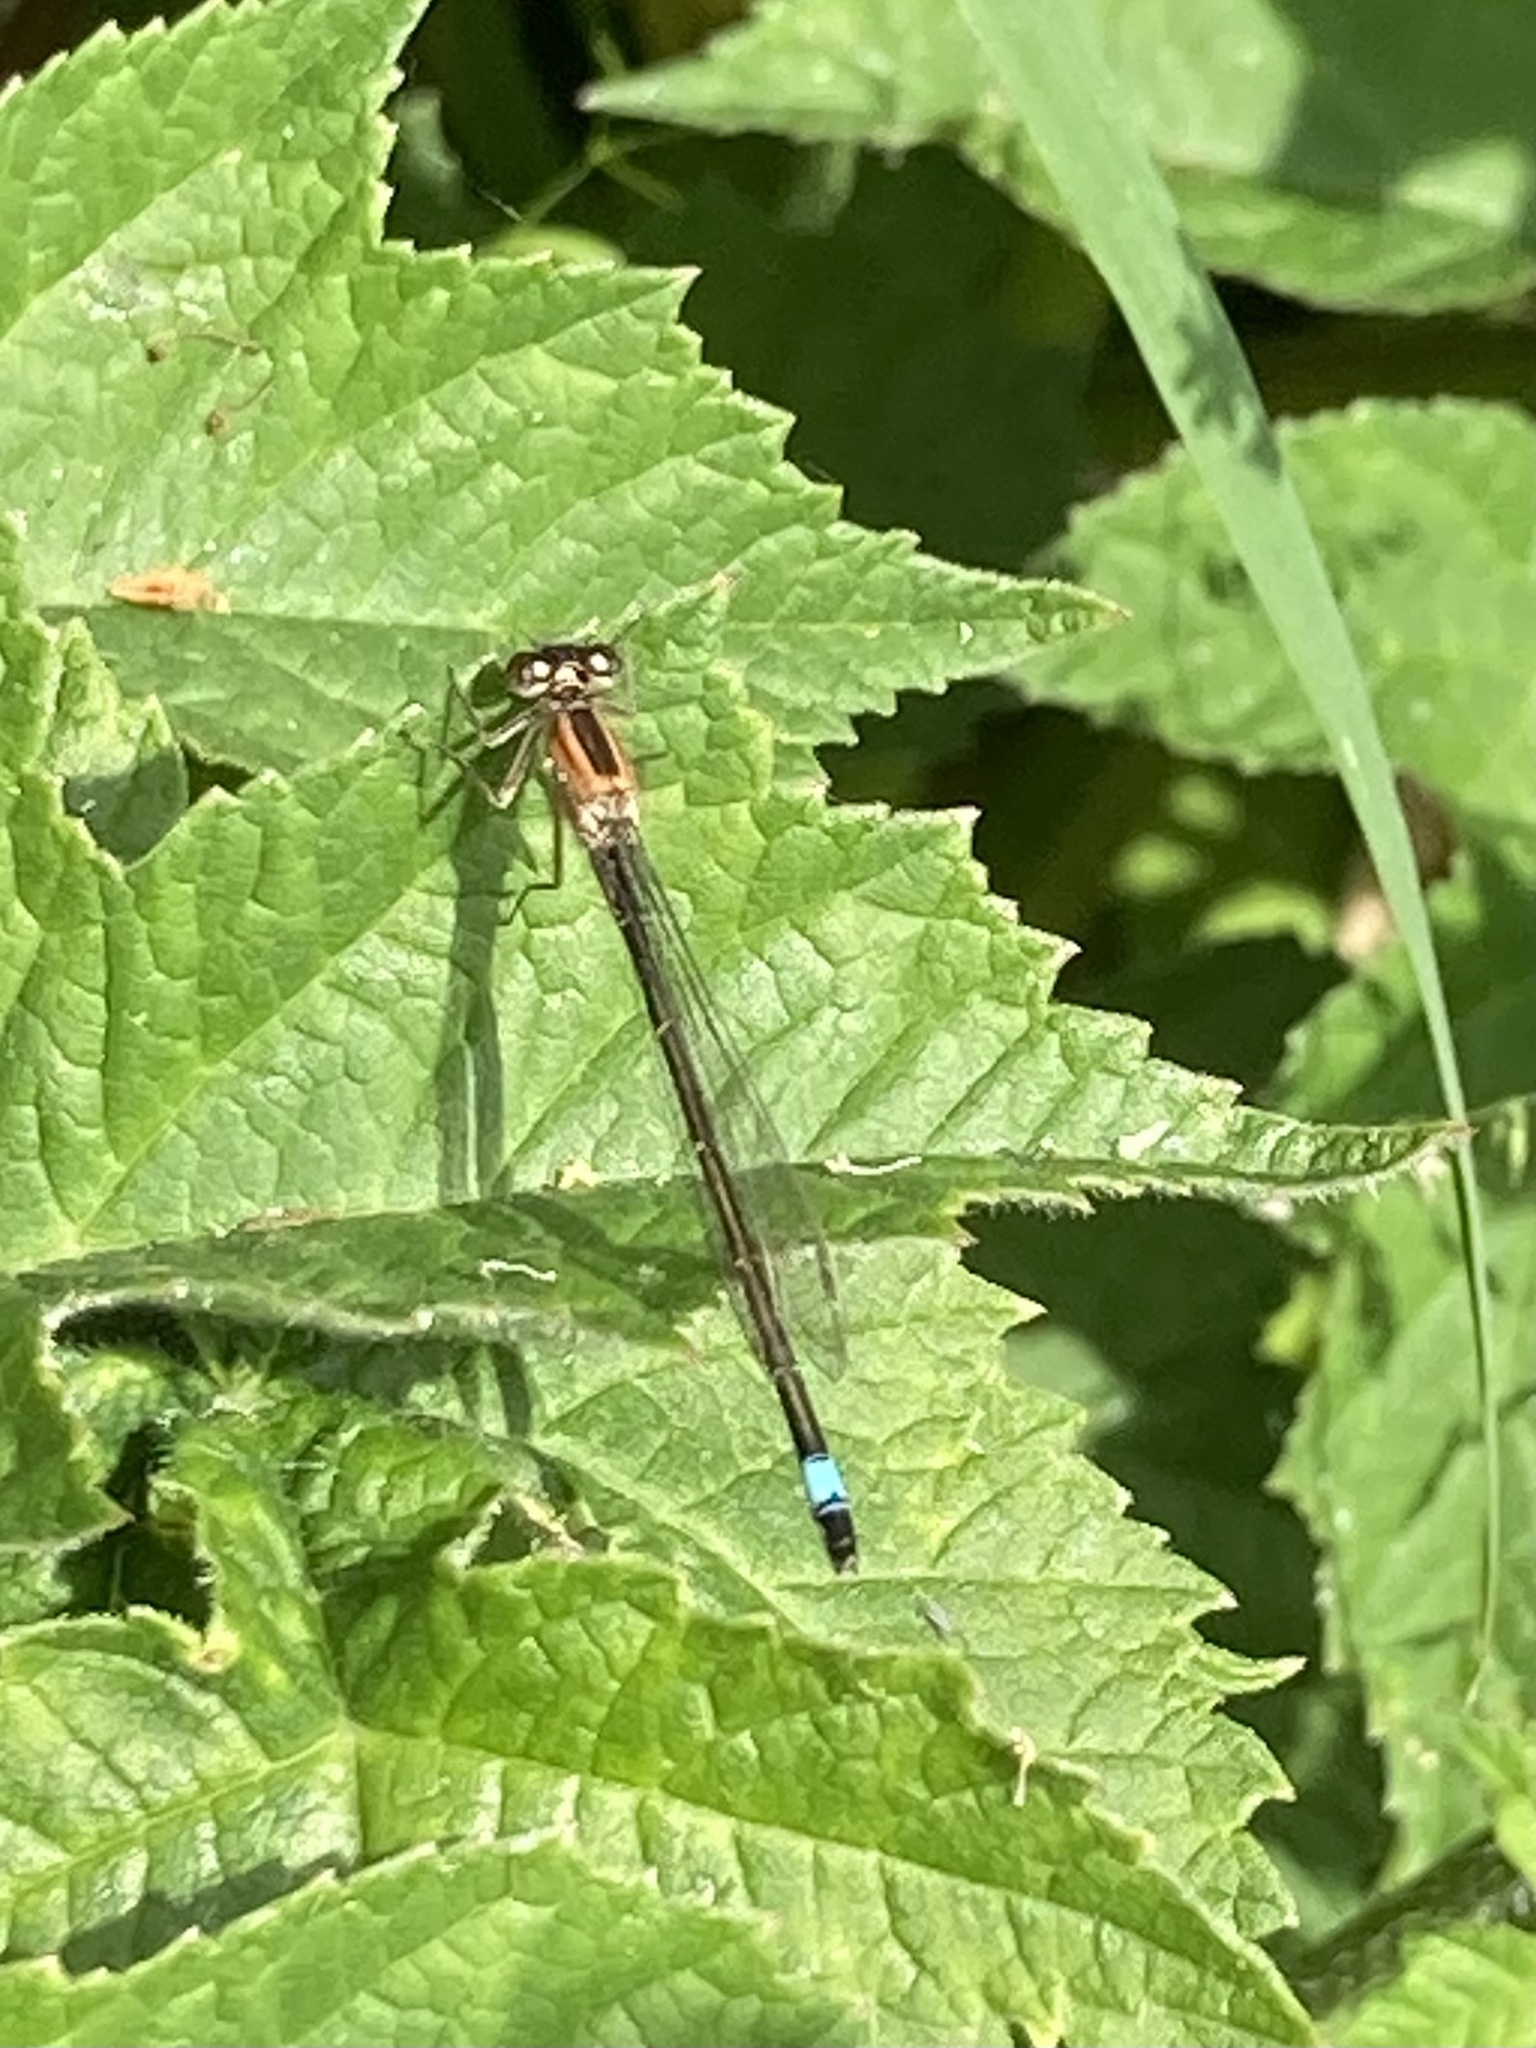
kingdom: Animalia
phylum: Arthropoda
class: Insecta
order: Odonata
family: Coenagrionidae
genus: Ischnura
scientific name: Ischnura elegans
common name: Blue-tailed damselfly
